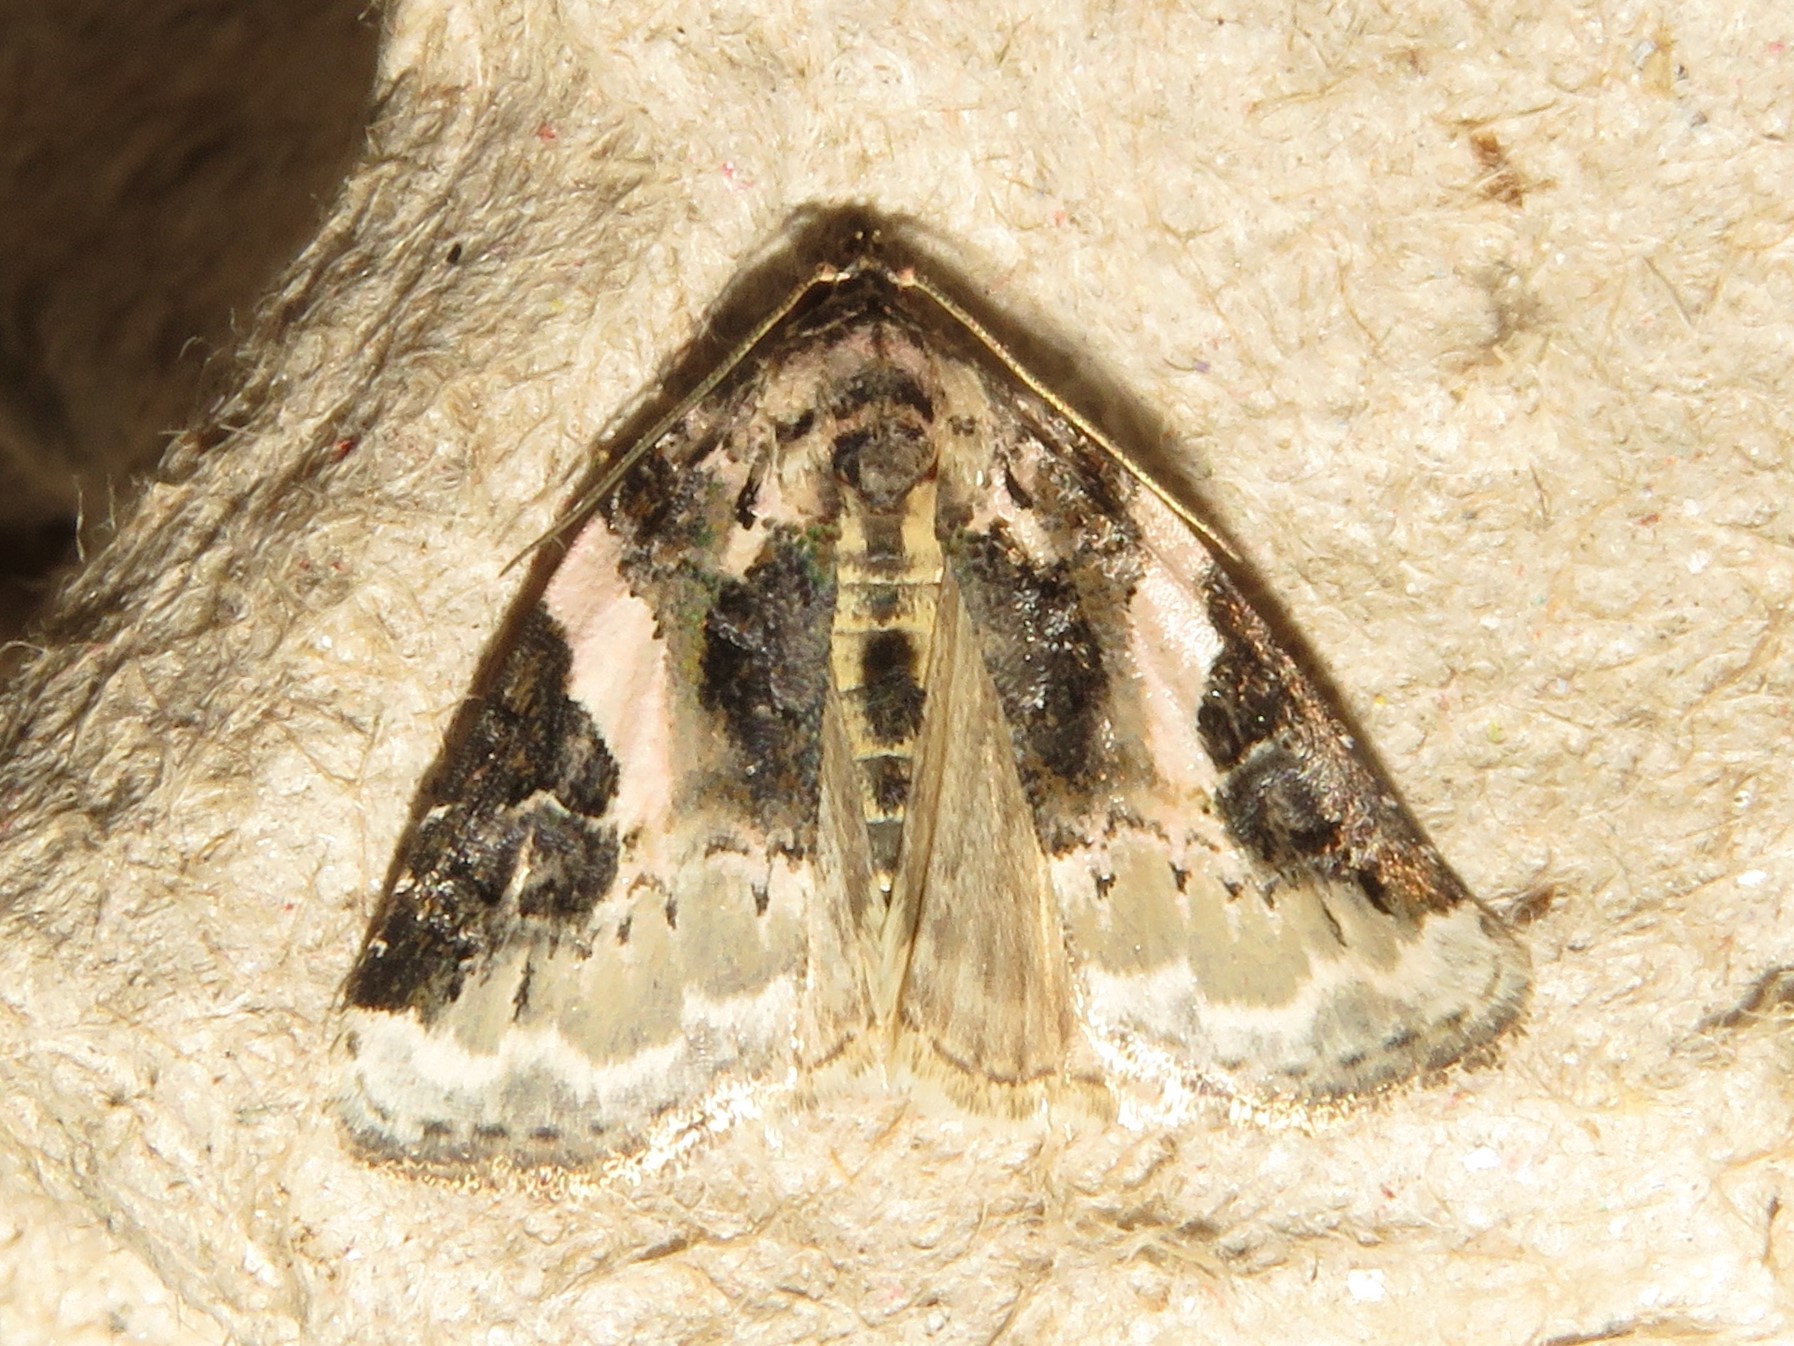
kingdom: Animalia
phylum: Arthropoda
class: Insecta
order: Lepidoptera
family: Noctuidae
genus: Pseudeustrotia
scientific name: Pseudeustrotia carneola
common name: Pink-barred lithacodia moth
